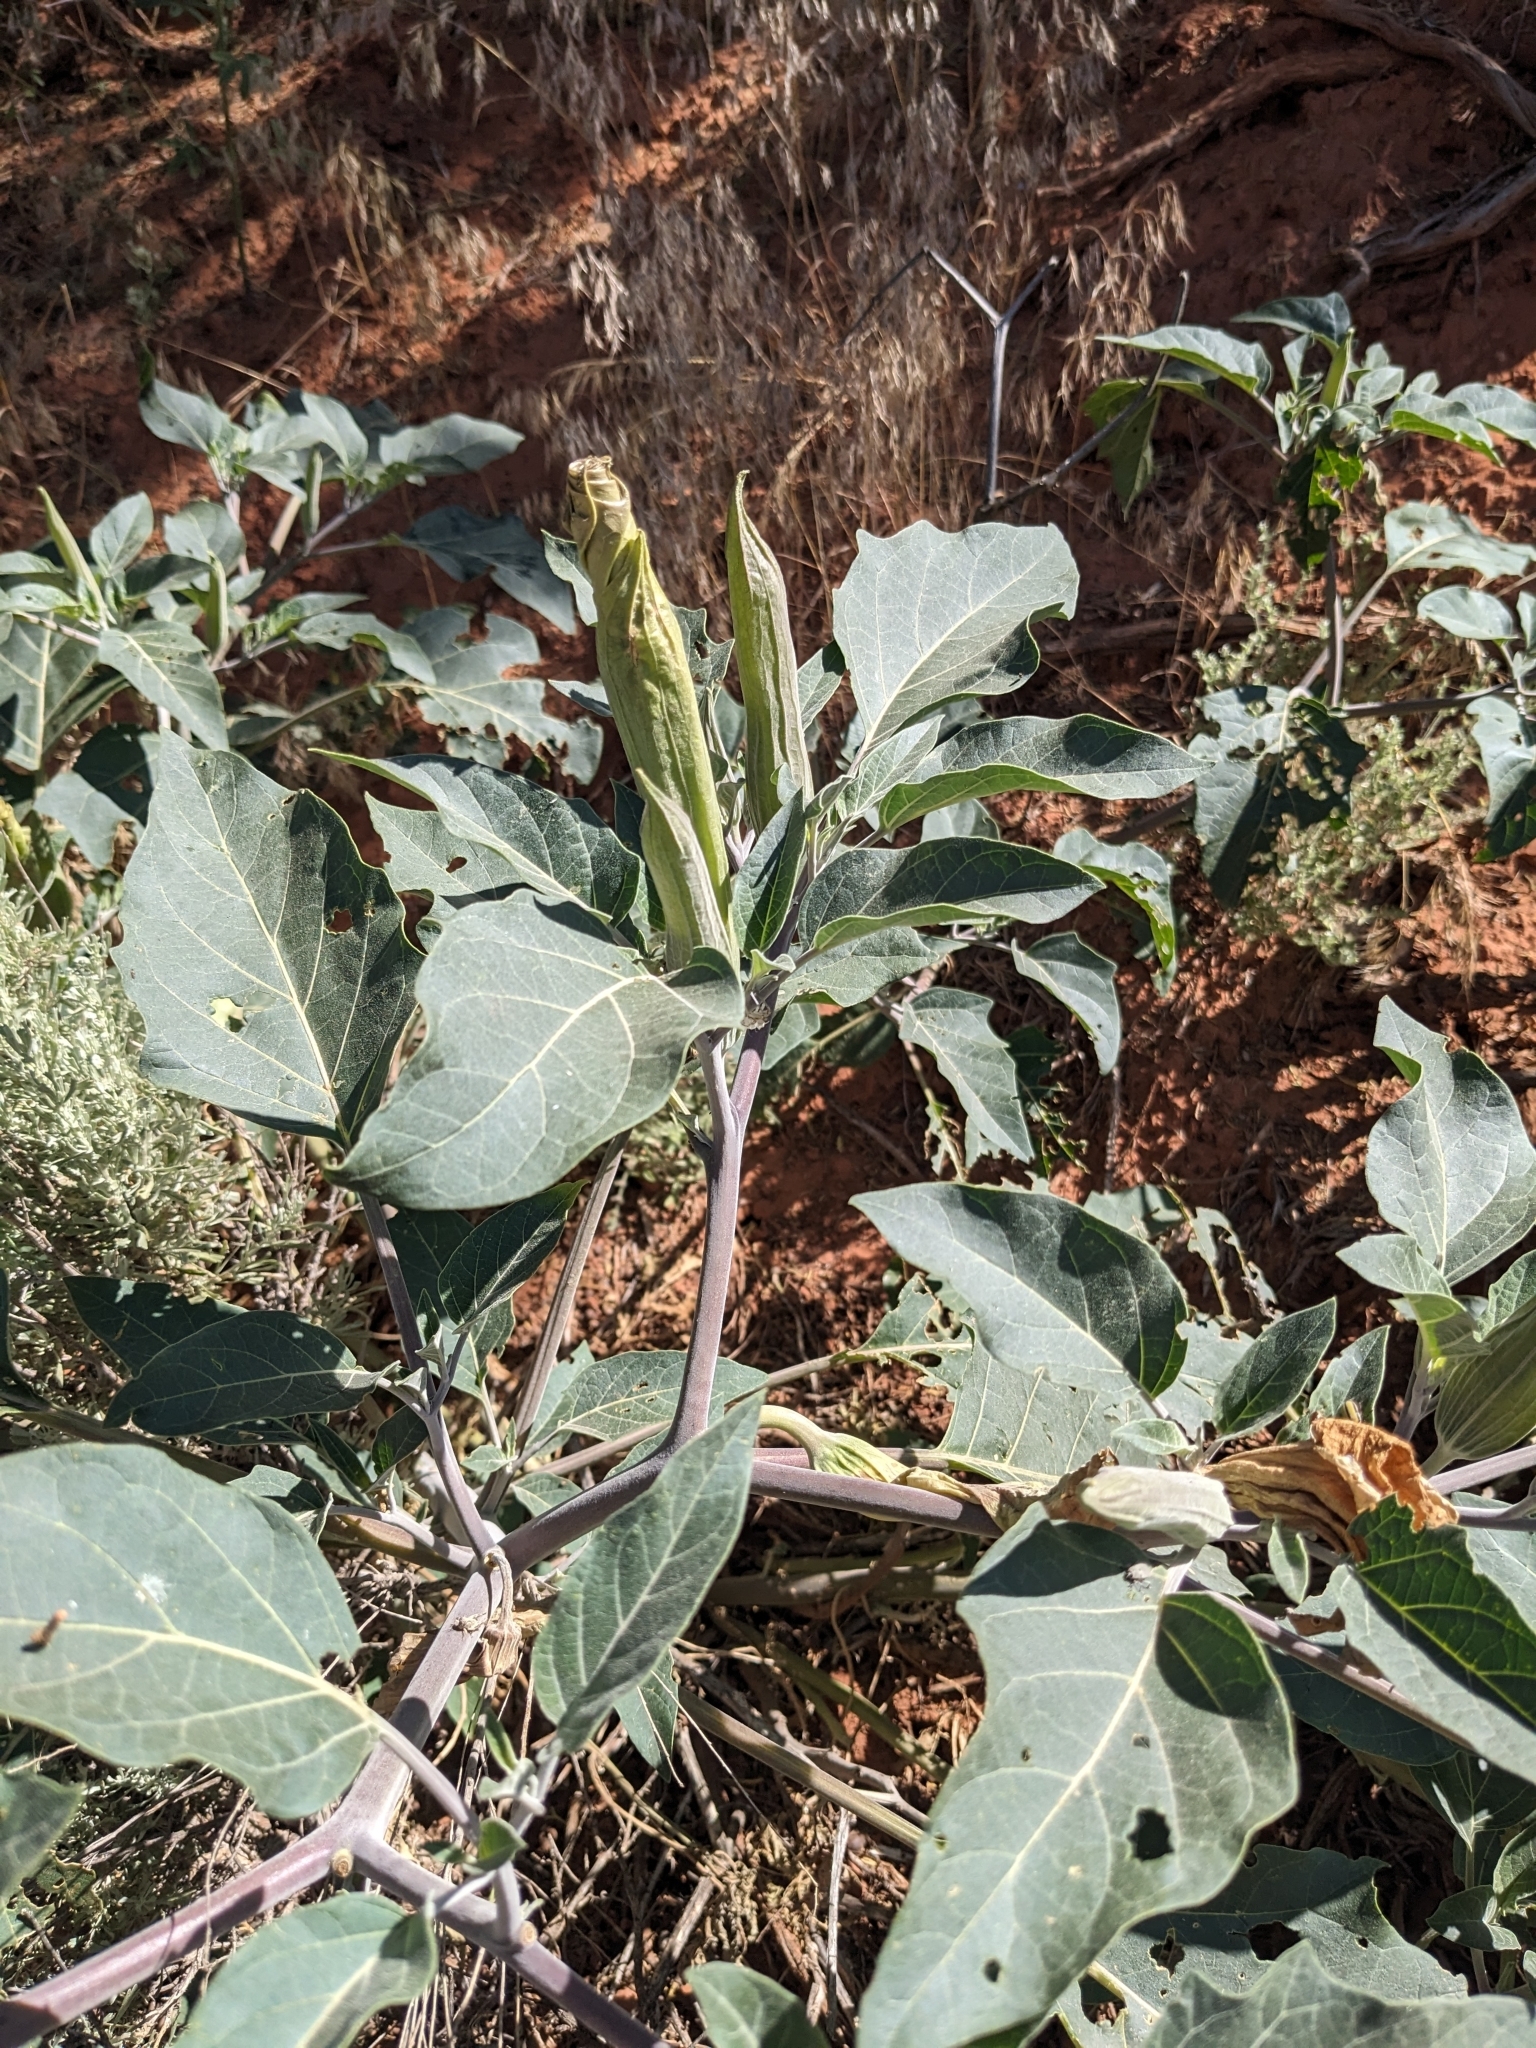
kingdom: Plantae
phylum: Tracheophyta
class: Magnoliopsida
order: Solanales
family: Solanaceae
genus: Datura
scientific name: Datura wrightii
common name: Sacred thorn-apple
